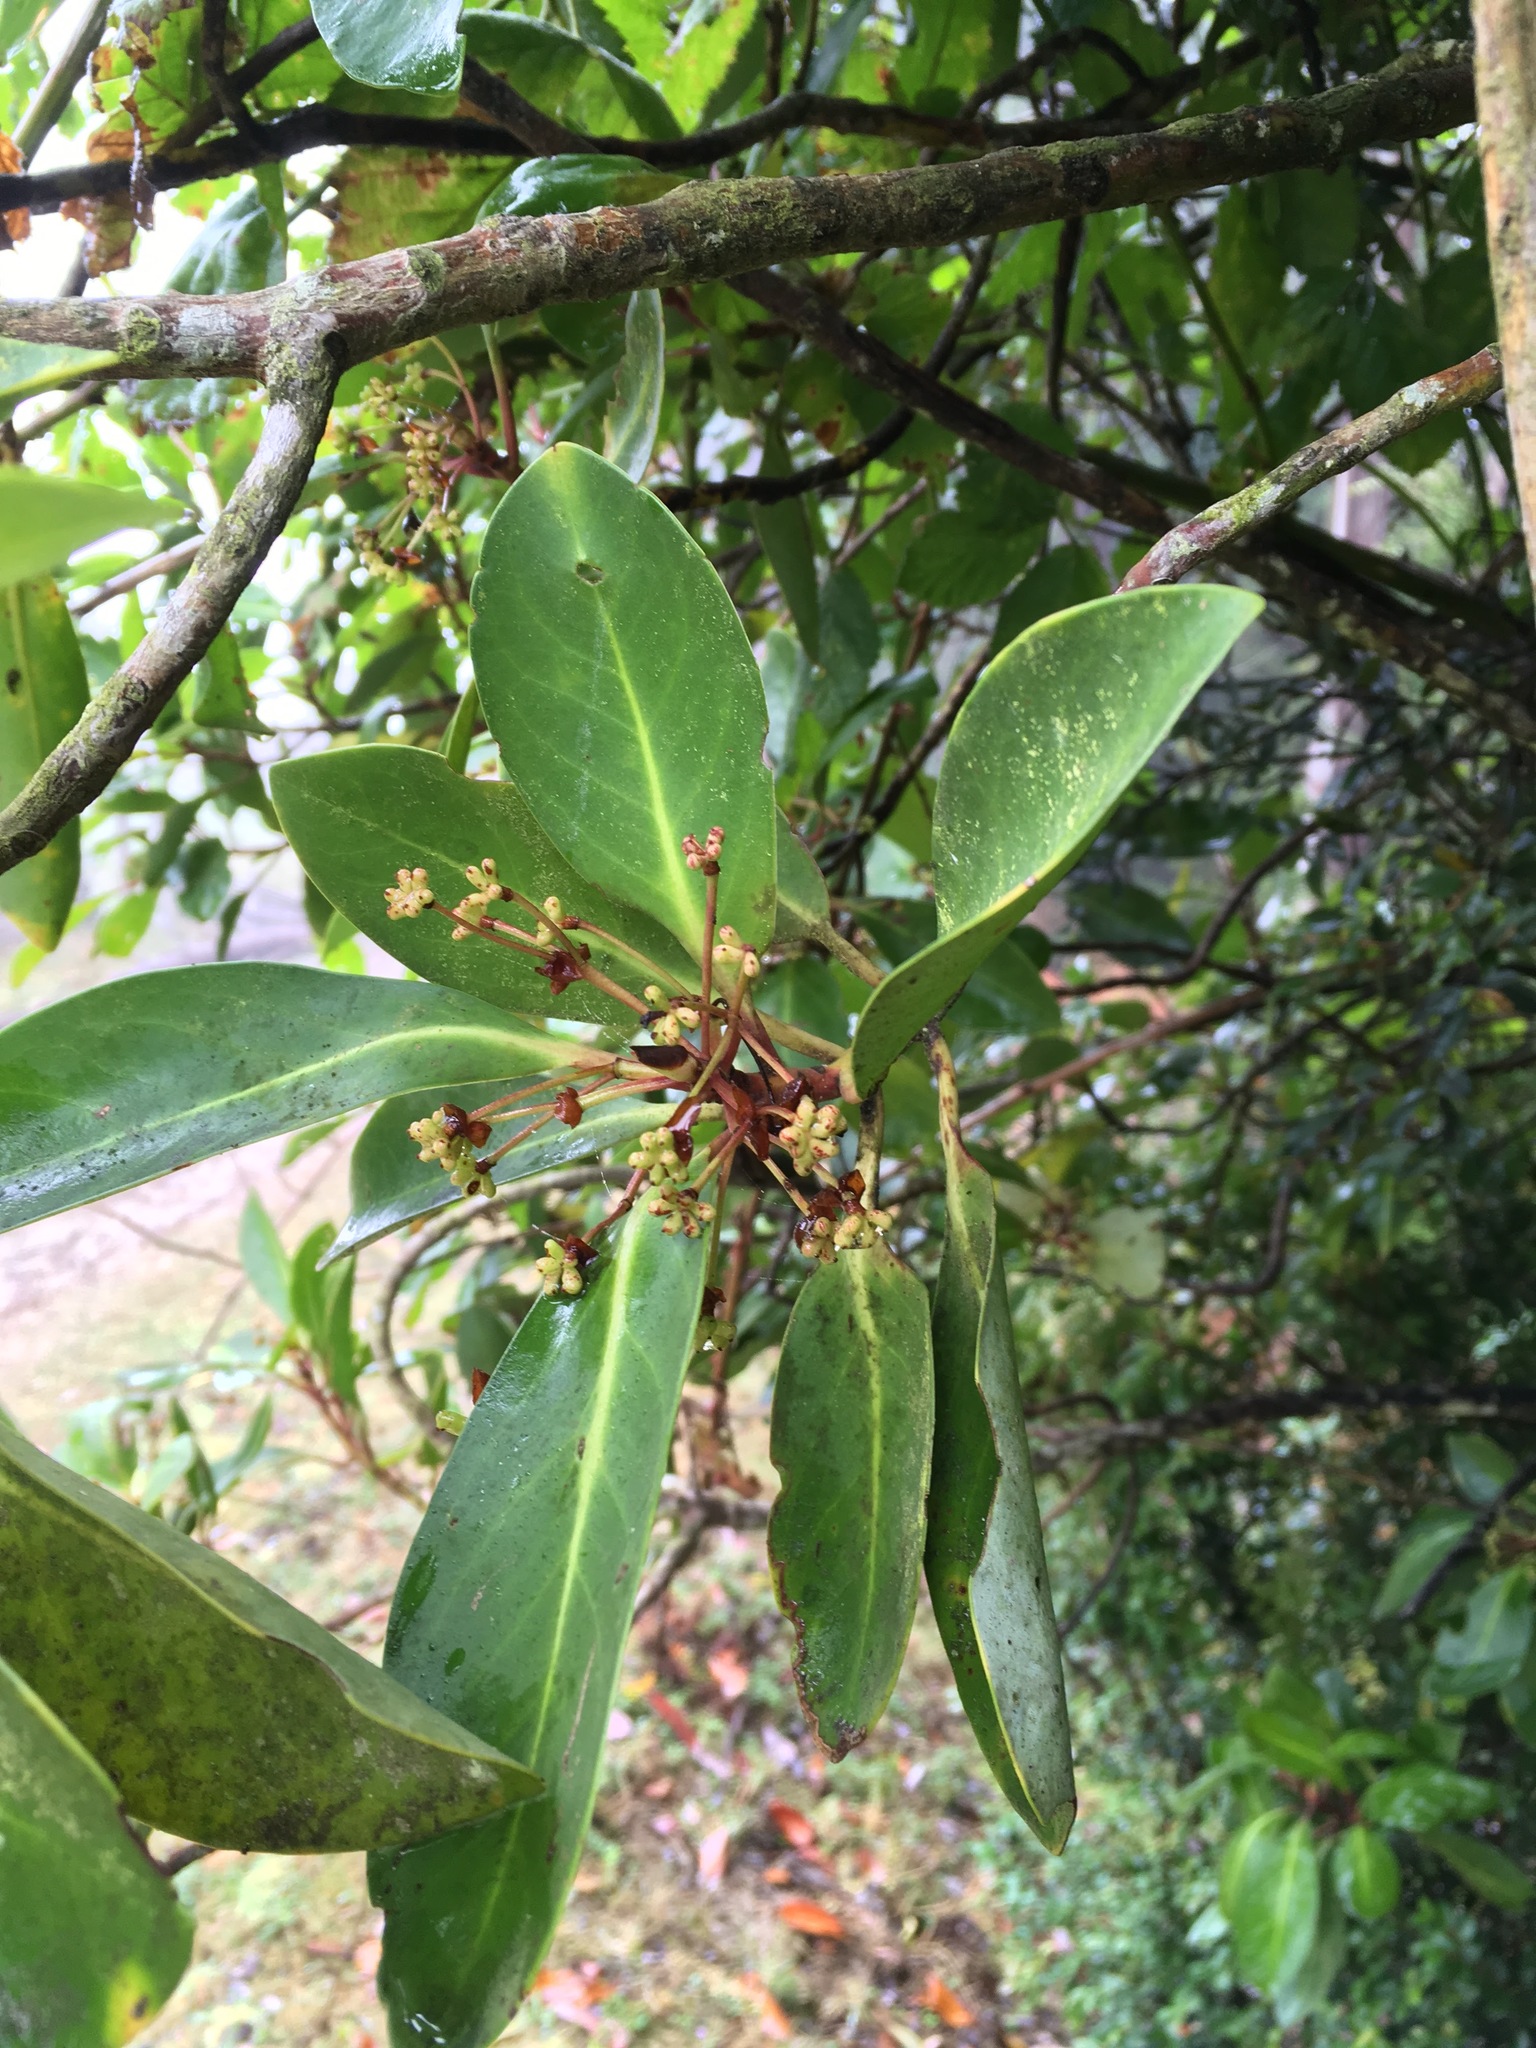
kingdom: Plantae
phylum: Tracheophyta
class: Magnoliopsida
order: Canellales
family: Winteraceae
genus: Drimys
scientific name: Drimys winteri
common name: Winter's-bark
